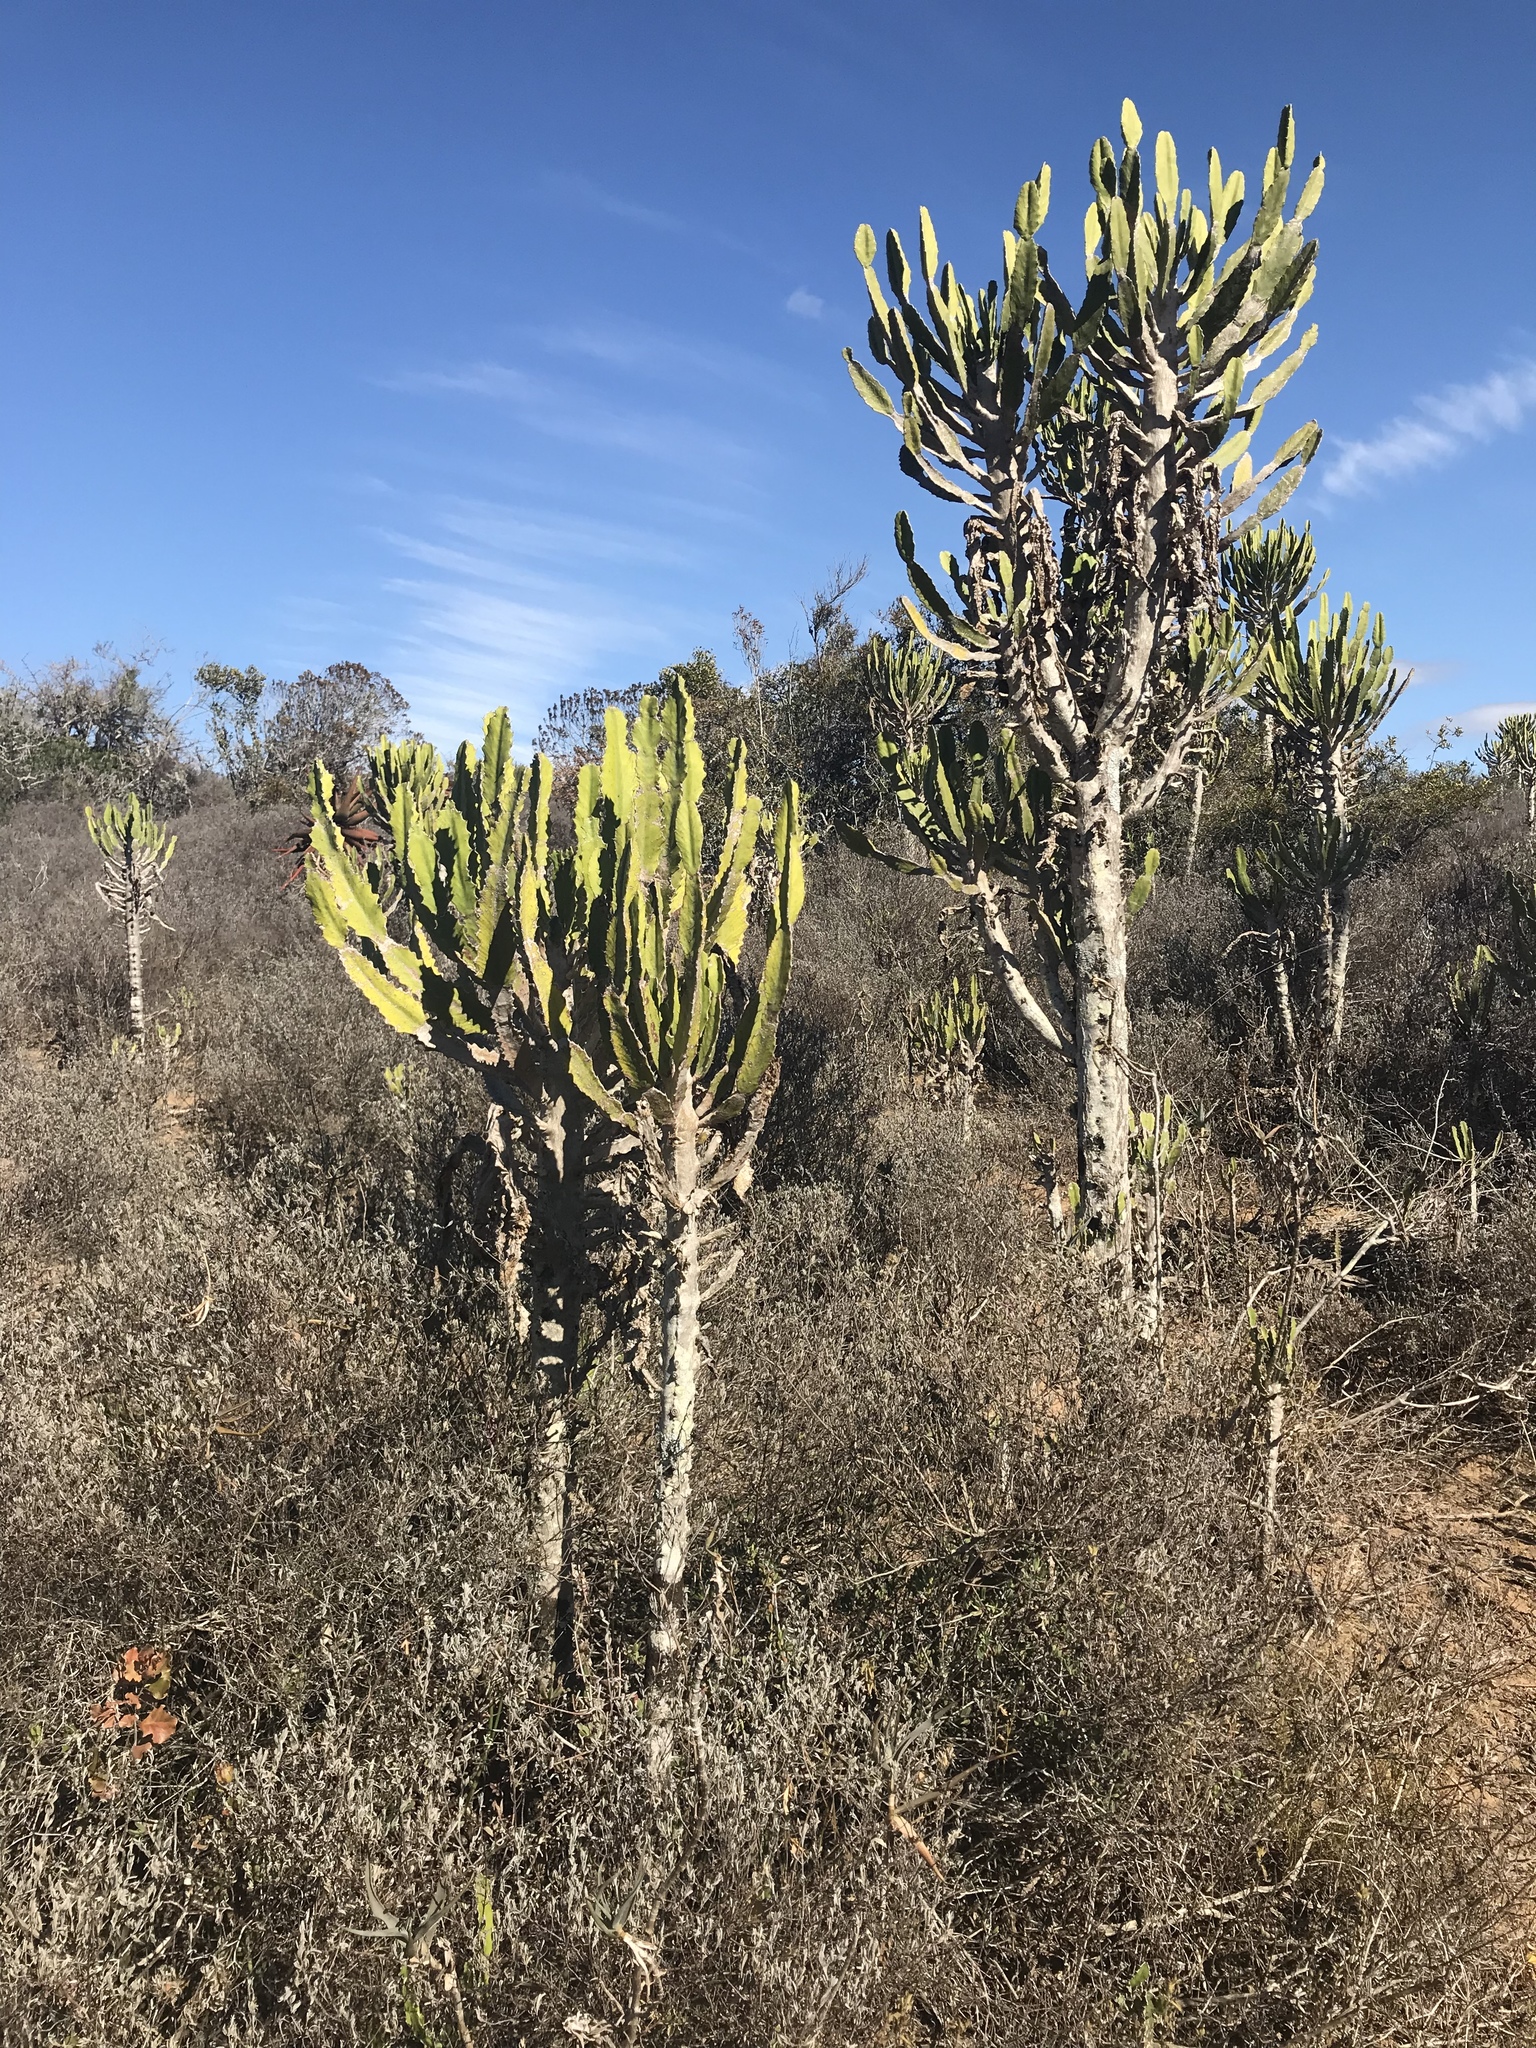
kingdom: Plantae
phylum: Tracheophyta
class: Magnoliopsida
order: Malpighiales
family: Euphorbiaceae
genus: Euphorbia
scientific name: Euphorbia triangularis
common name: Chandelier tree
